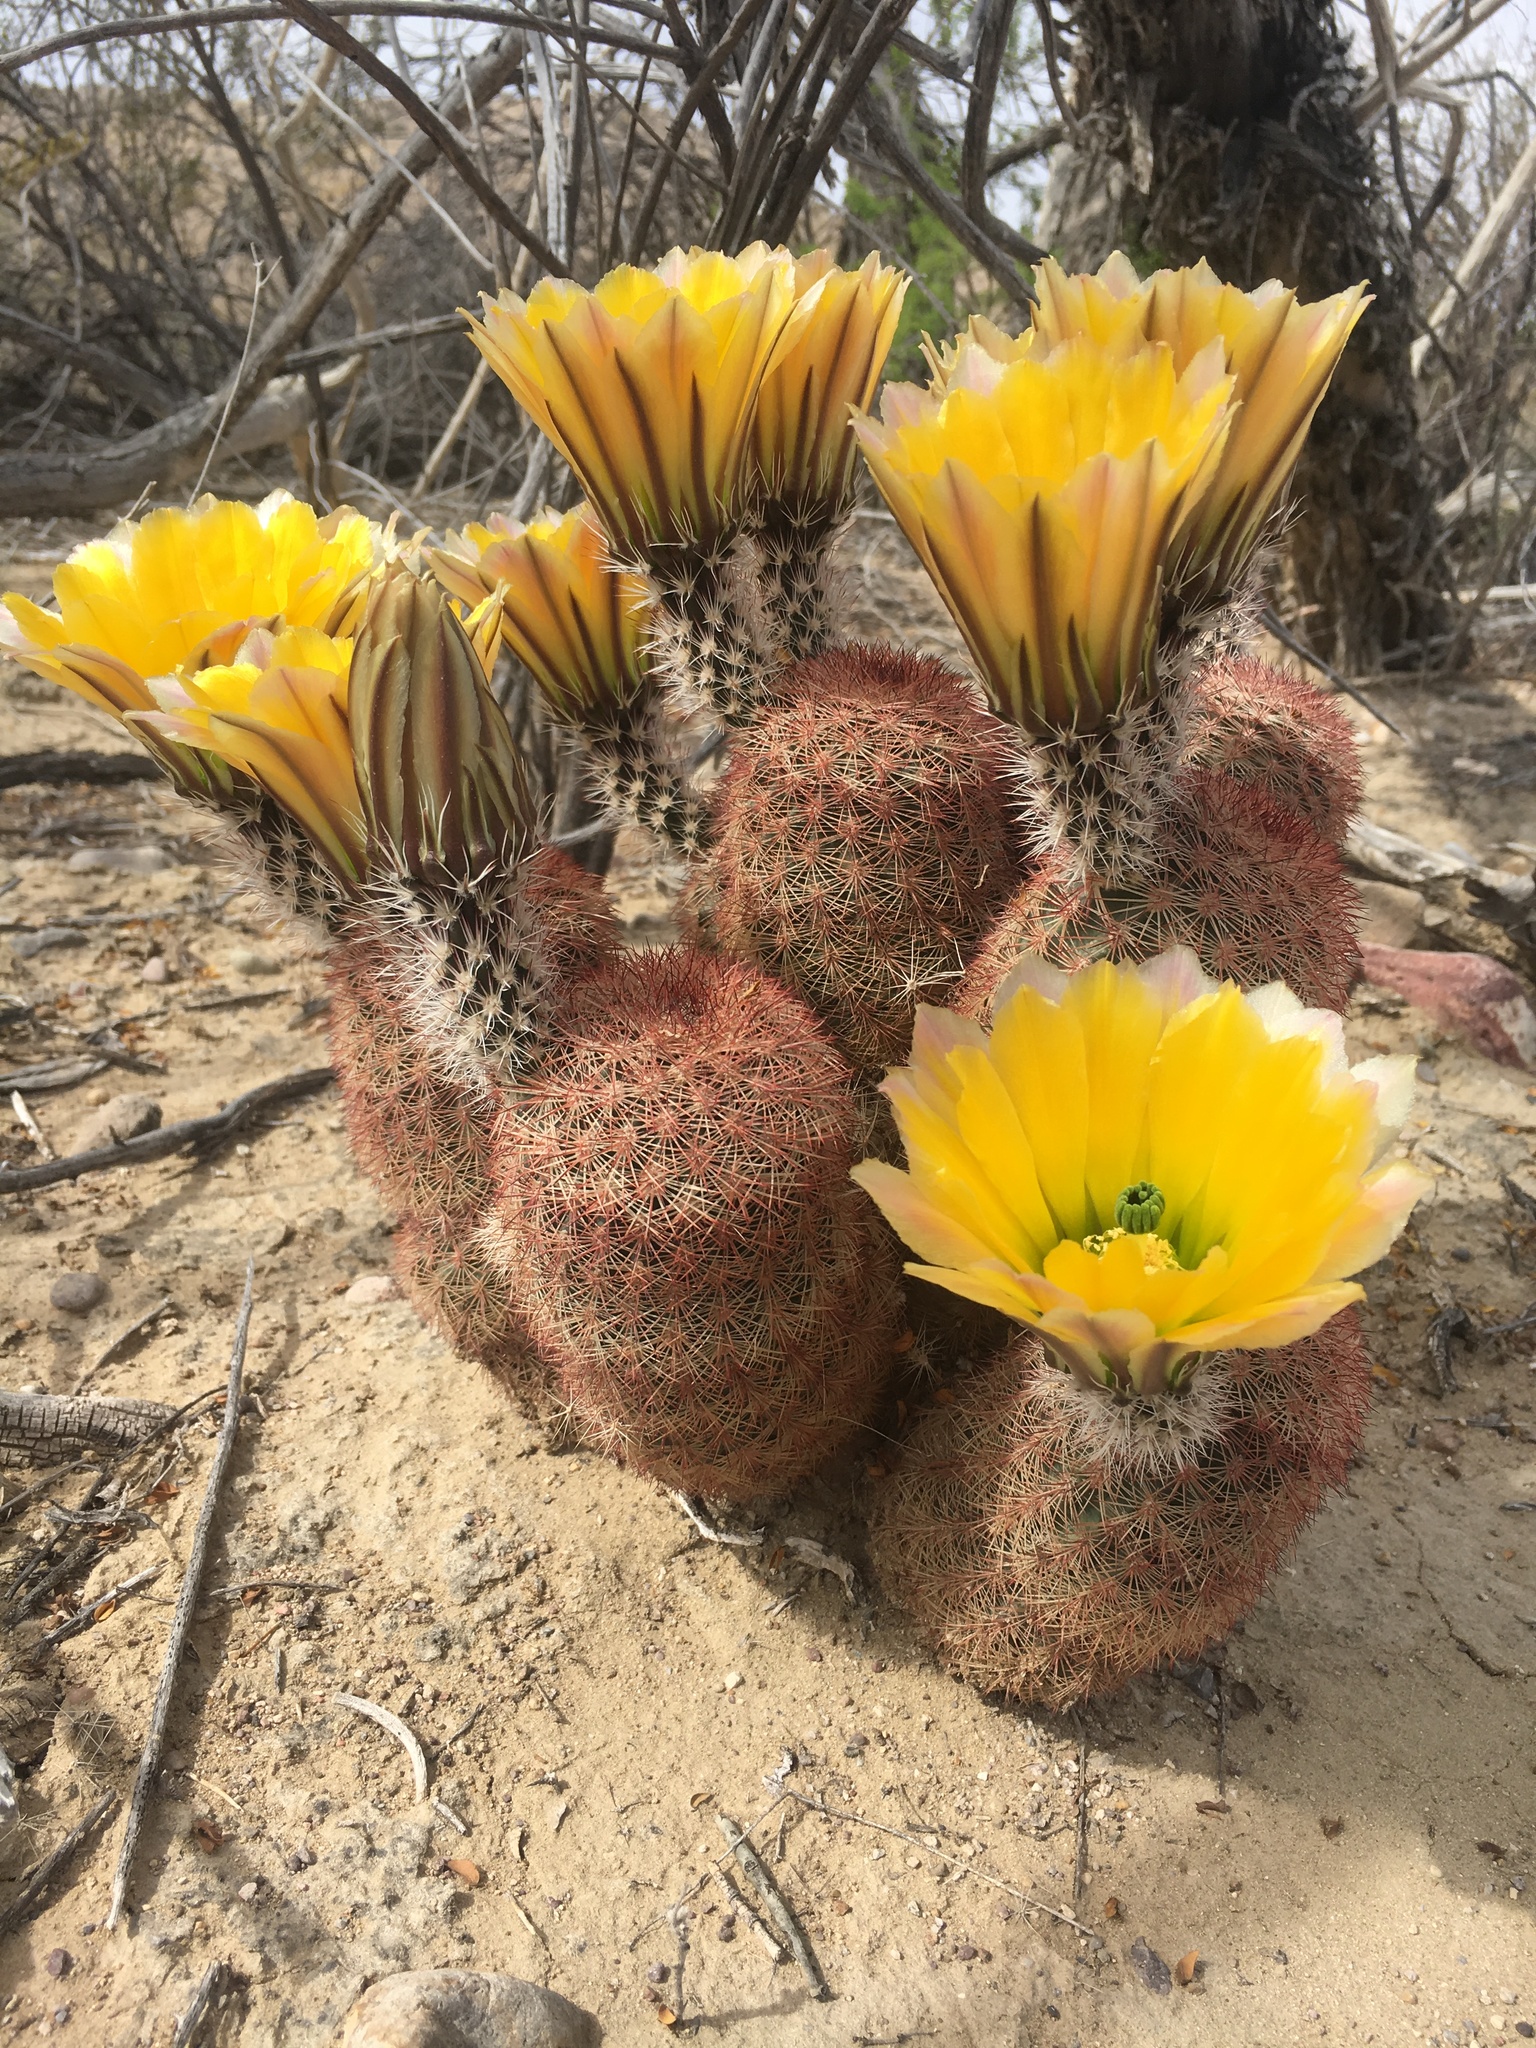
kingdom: Plantae
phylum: Tracheophyta
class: Magnoliopsida
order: Caryophyllales
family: Cactaceae
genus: Echinocereus
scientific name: Echinocereus dasyacanthus
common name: Spiny hedgehog cactus
